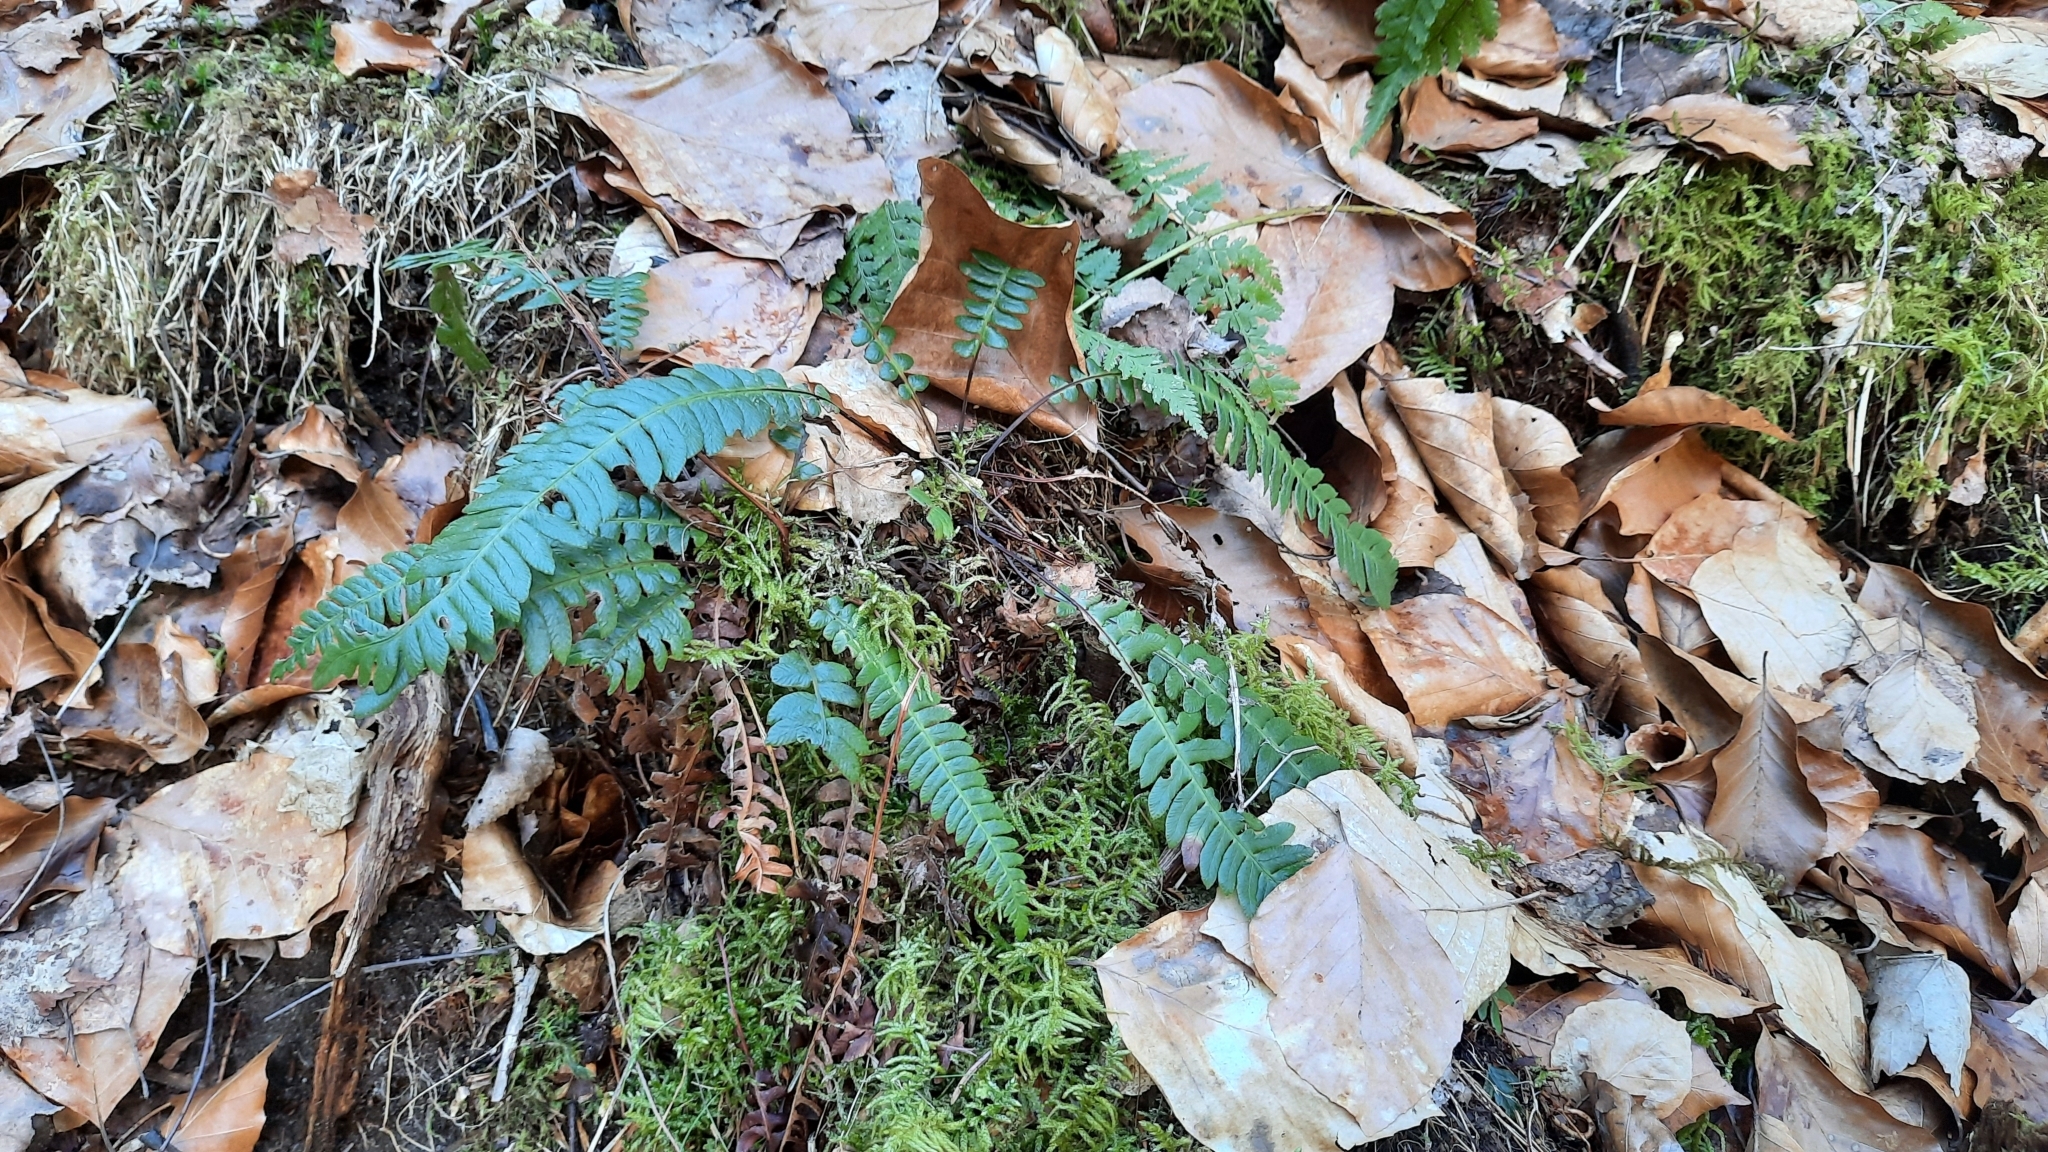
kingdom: Plantae
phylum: Tracheophyta
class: Polypodiopsida
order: Polypodiales
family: Blechnaceae
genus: Struthiopteris
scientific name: Struthiopteris spicant
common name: Deer fern
